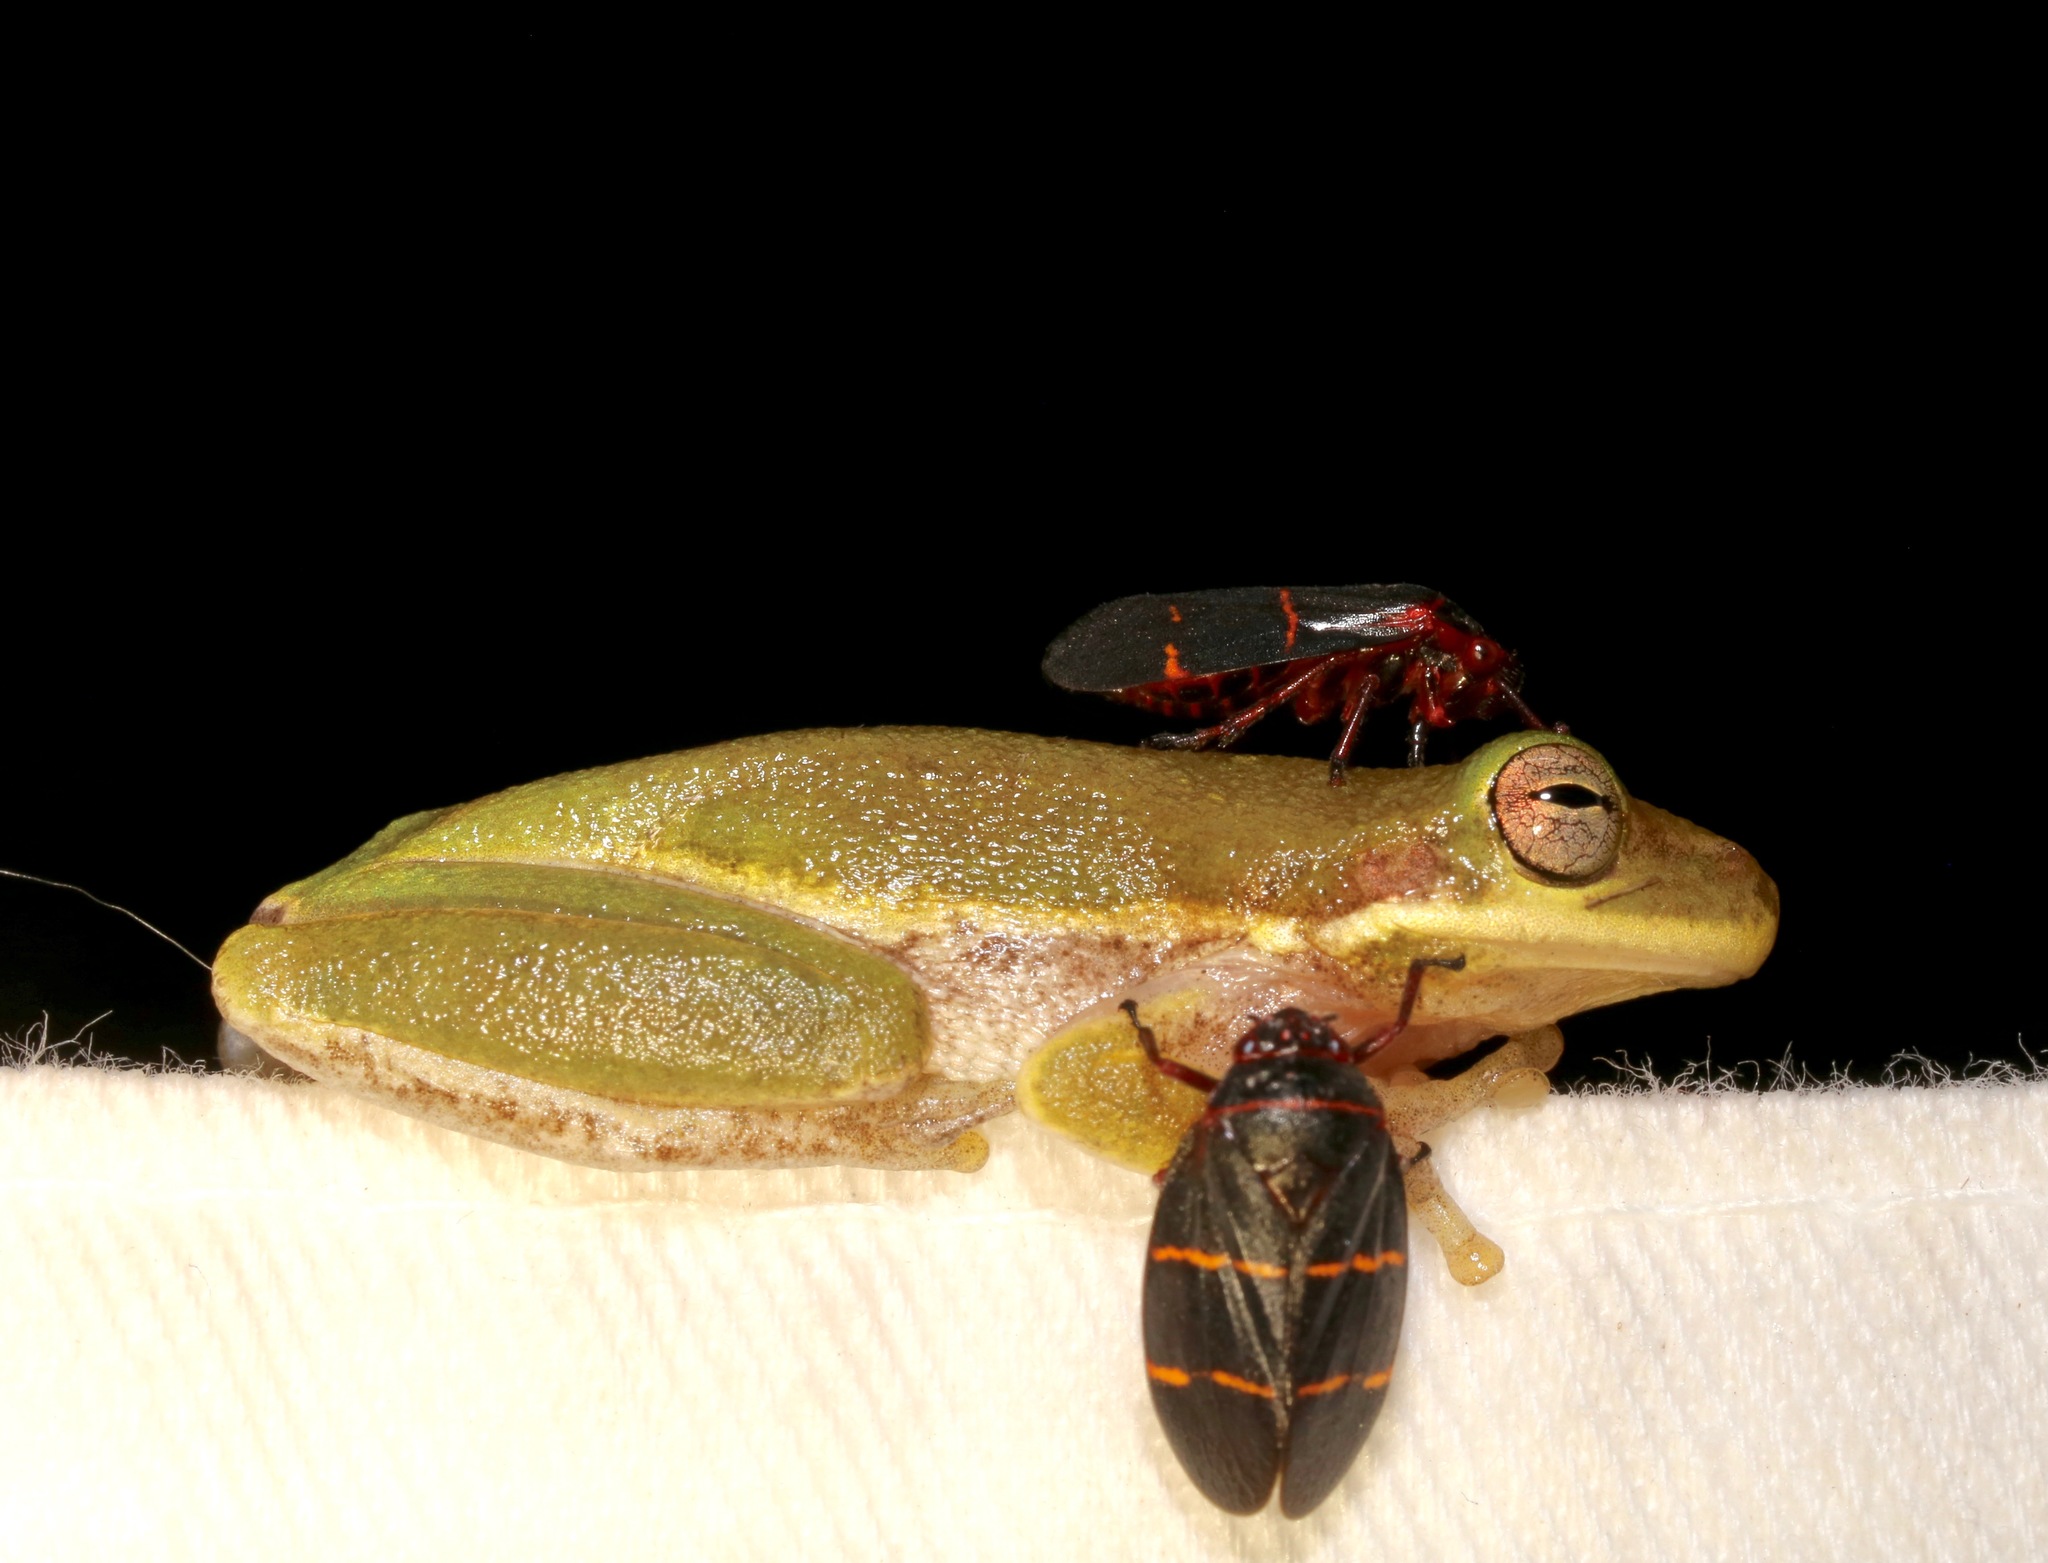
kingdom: Animalia
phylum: Chordata
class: Amphibia
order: Anura
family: Hylidae
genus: Dryophytes
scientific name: Dryophytes squirellus
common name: Squirrel treefrog
